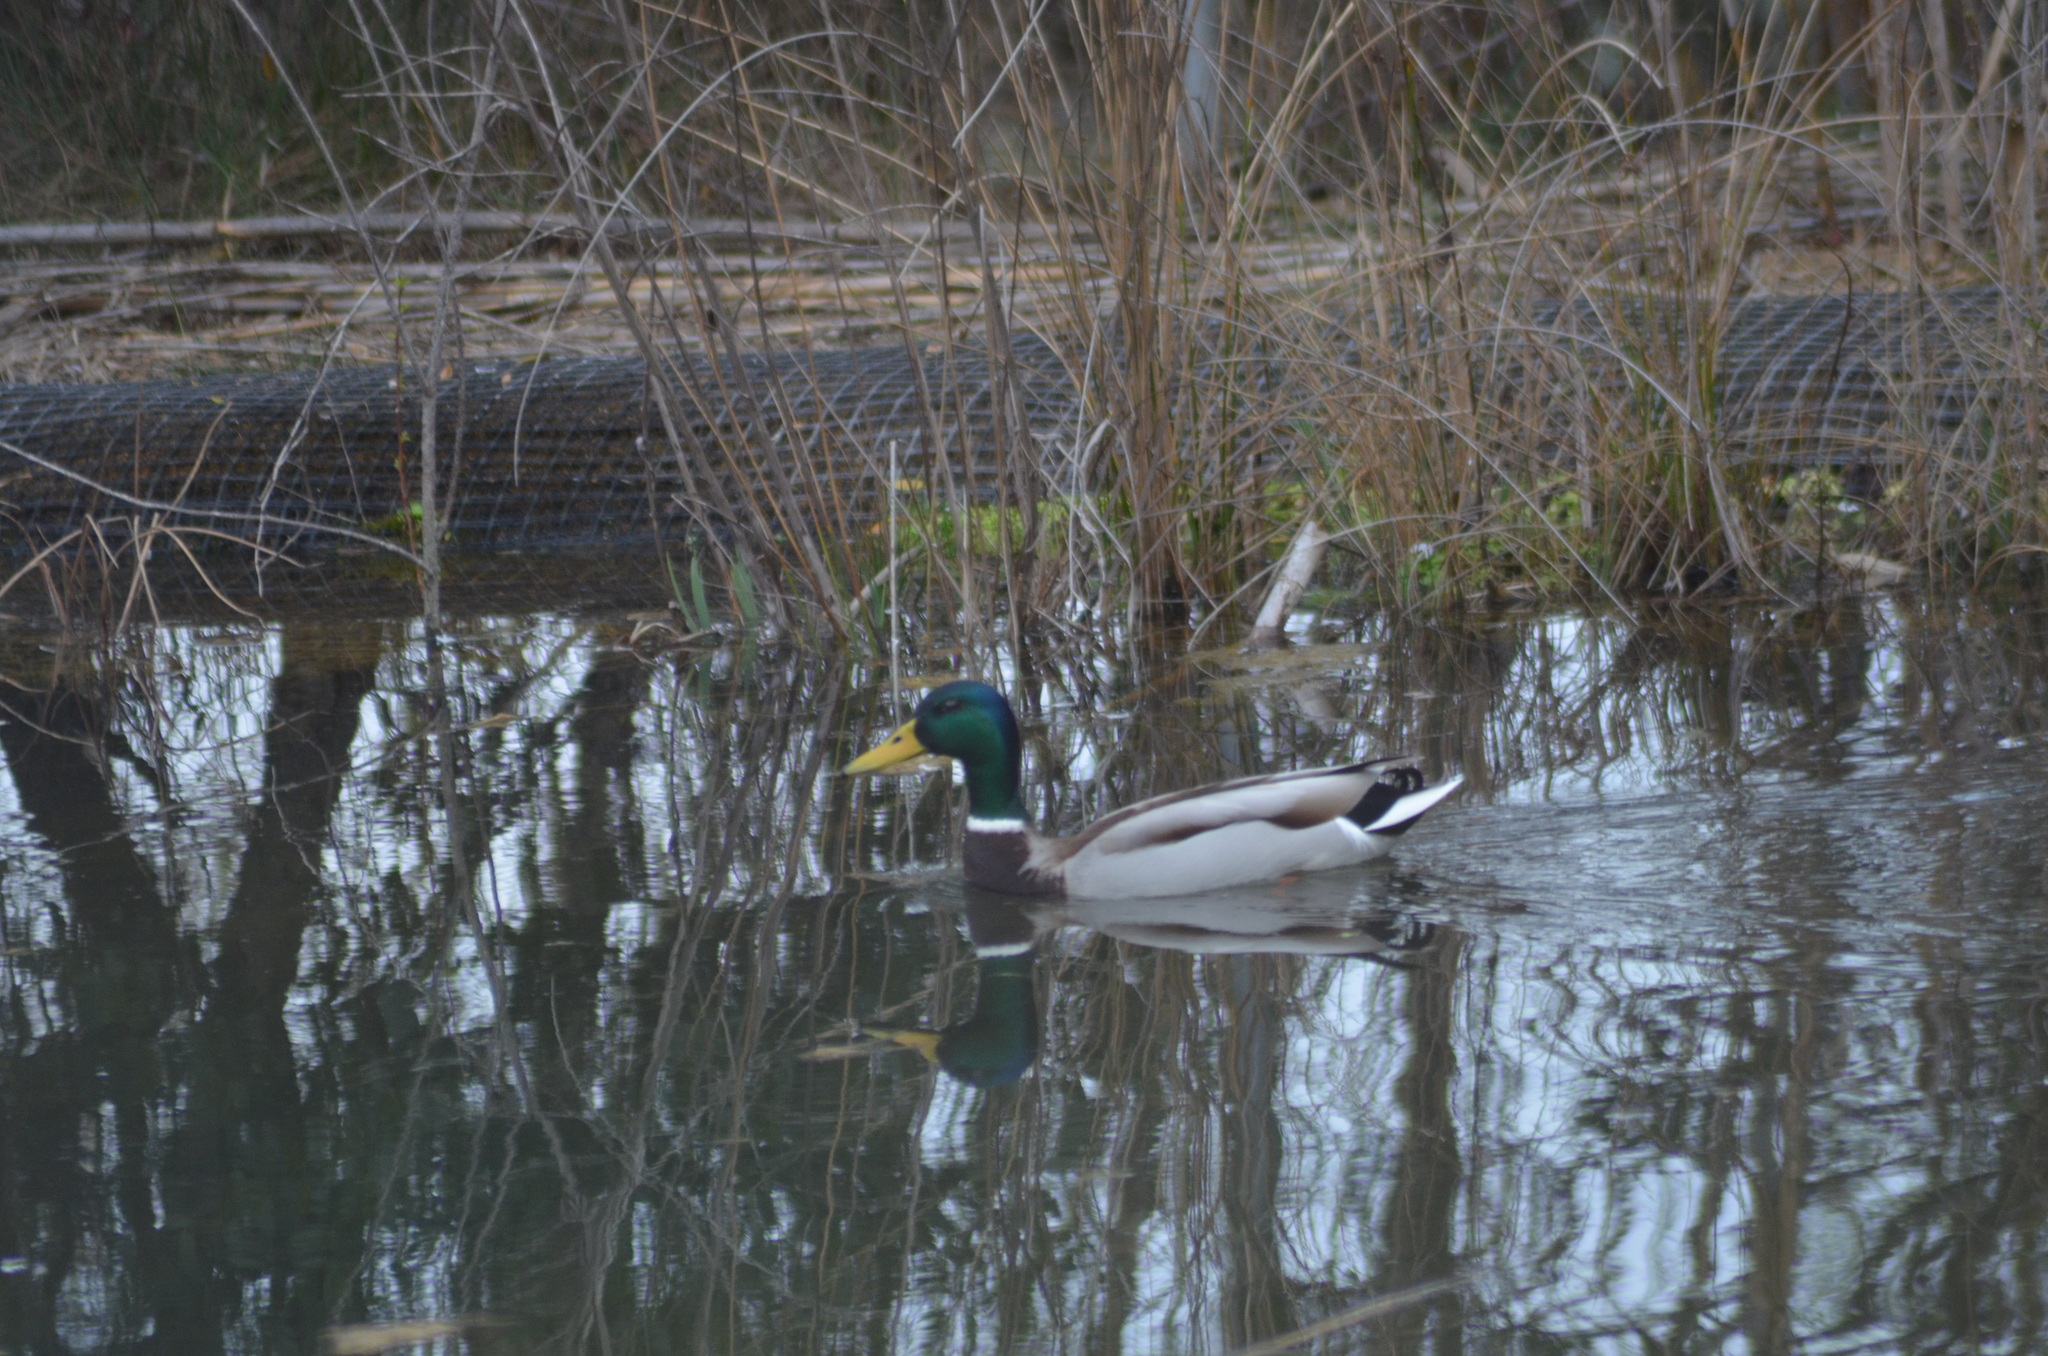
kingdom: Animalia
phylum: Chordata
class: Aves
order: Anseriformes
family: Anatidae
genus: Anas
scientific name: Anas platyrhynchos
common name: Mallard
